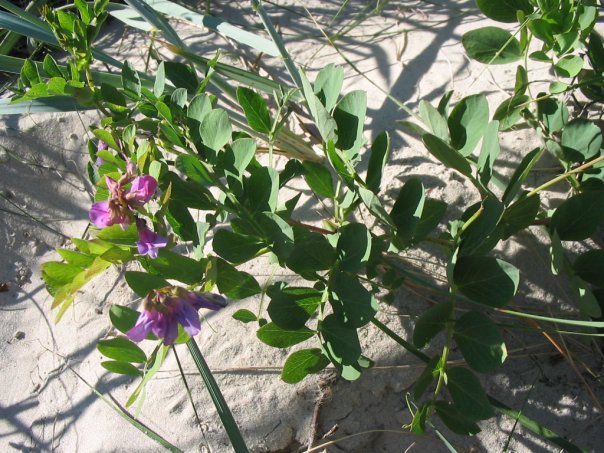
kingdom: Plantae
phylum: Tracheophyta
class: Magnoliopsida
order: Fabales
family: Fabaceae
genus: Lathyrus
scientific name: Lathyrus japonicus
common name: Sea pea
